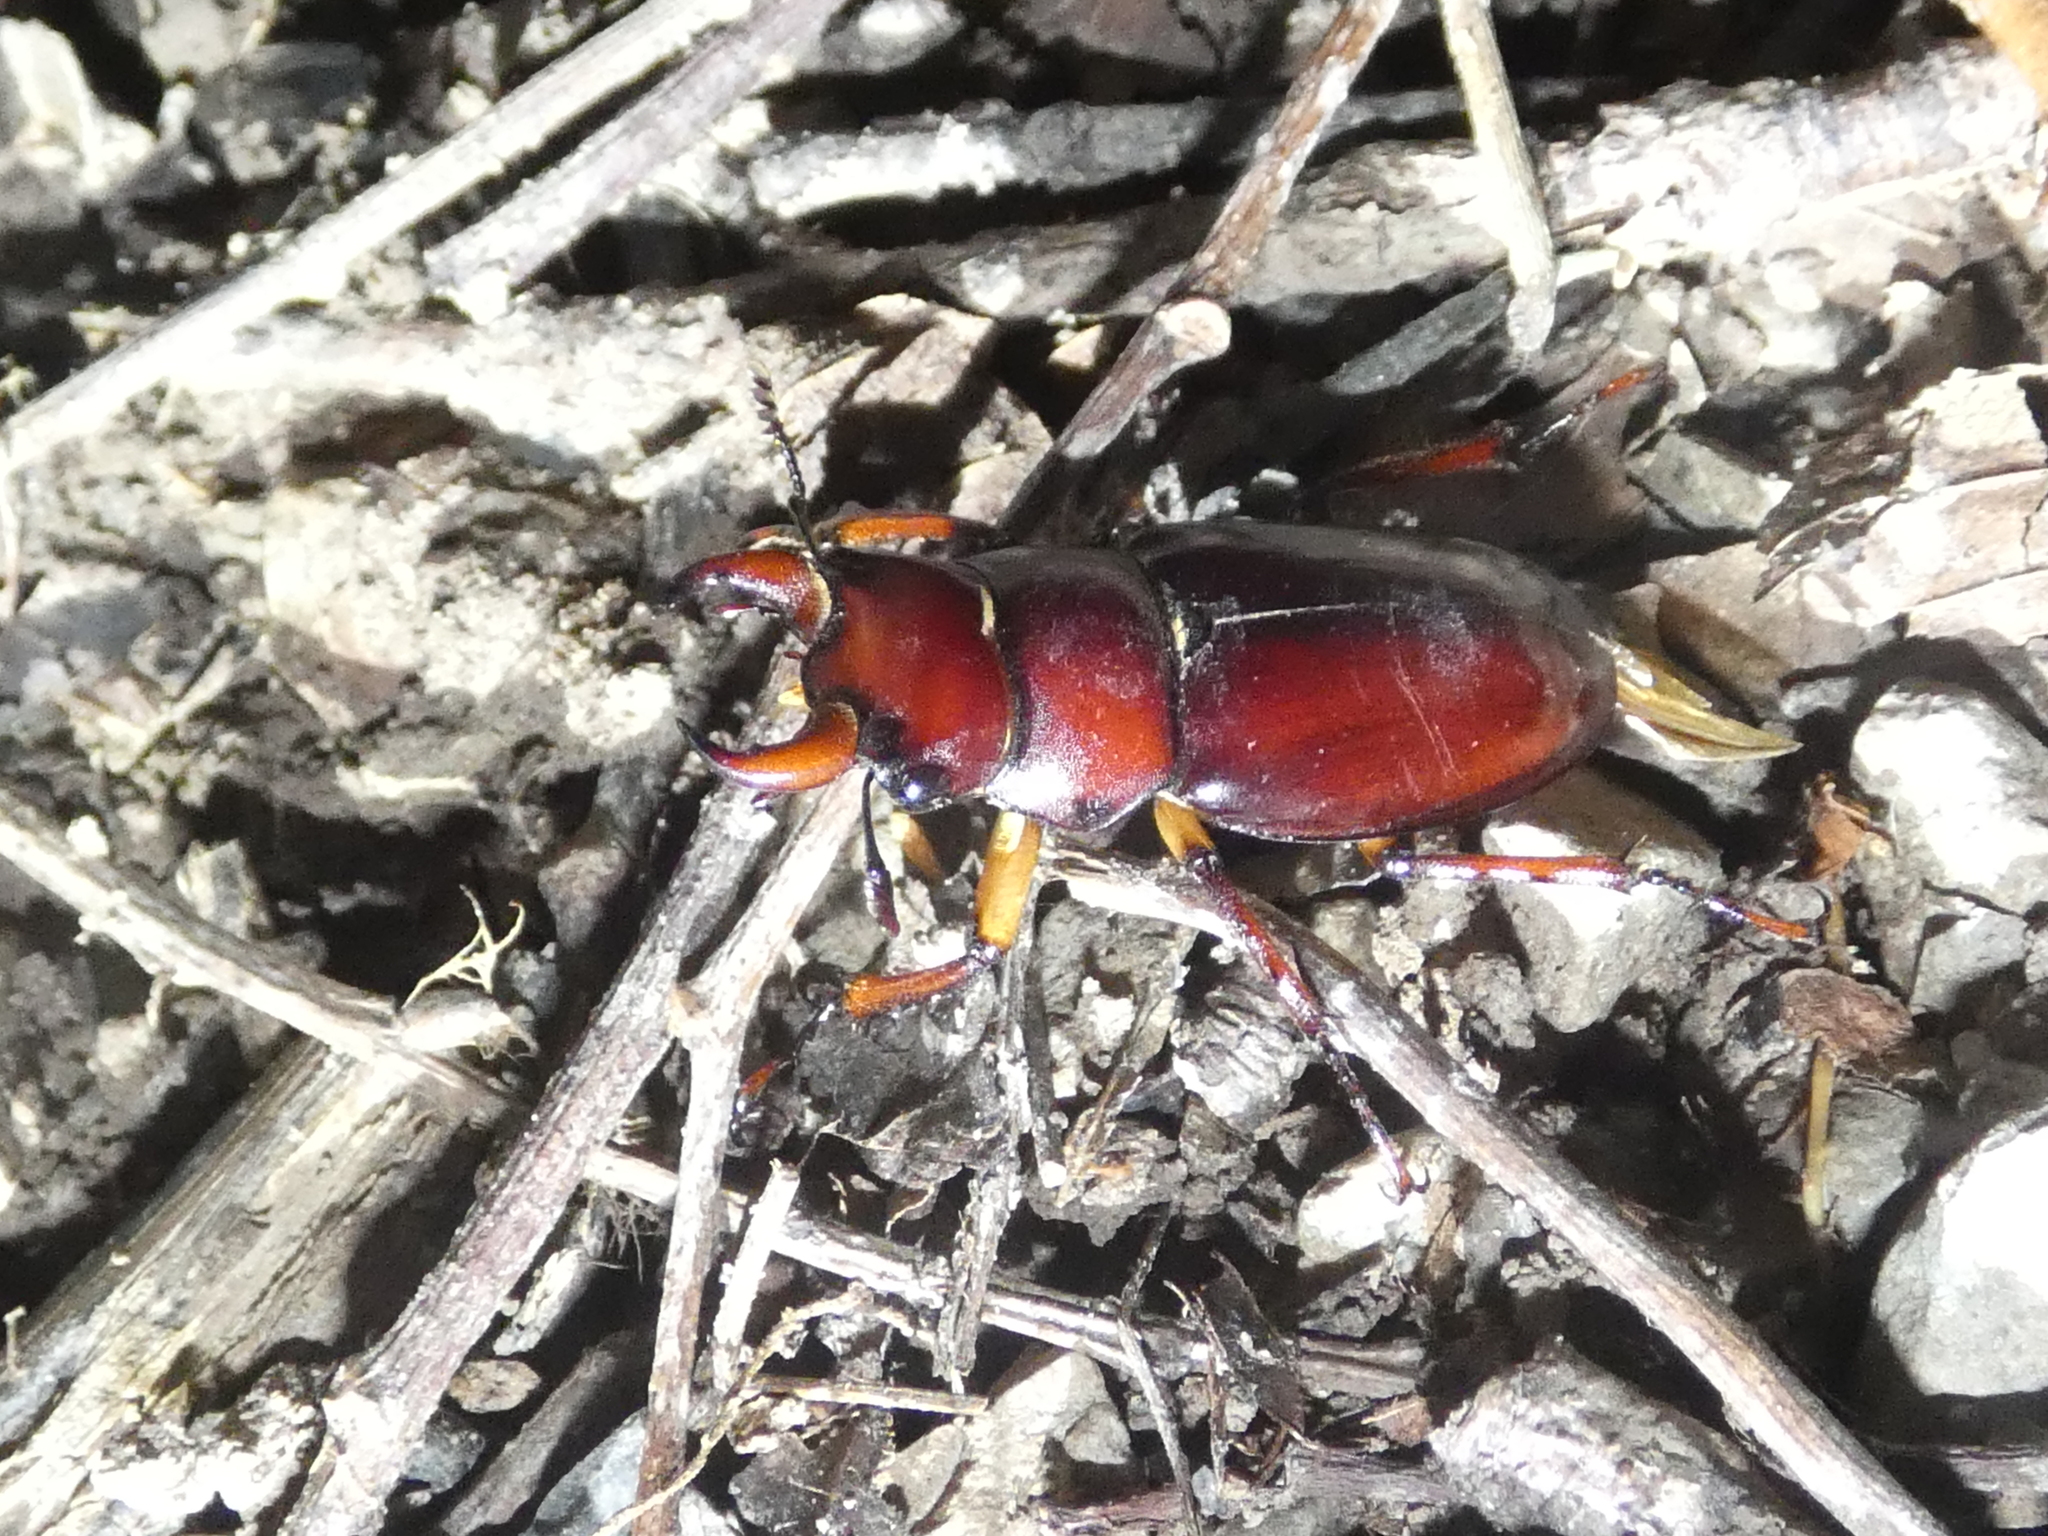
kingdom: Animalia
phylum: Arthropoda
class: Insecta
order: Coleoptera
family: Lucanidae
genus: Lucanus
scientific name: Lucanus capreolus
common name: Stag beetle
